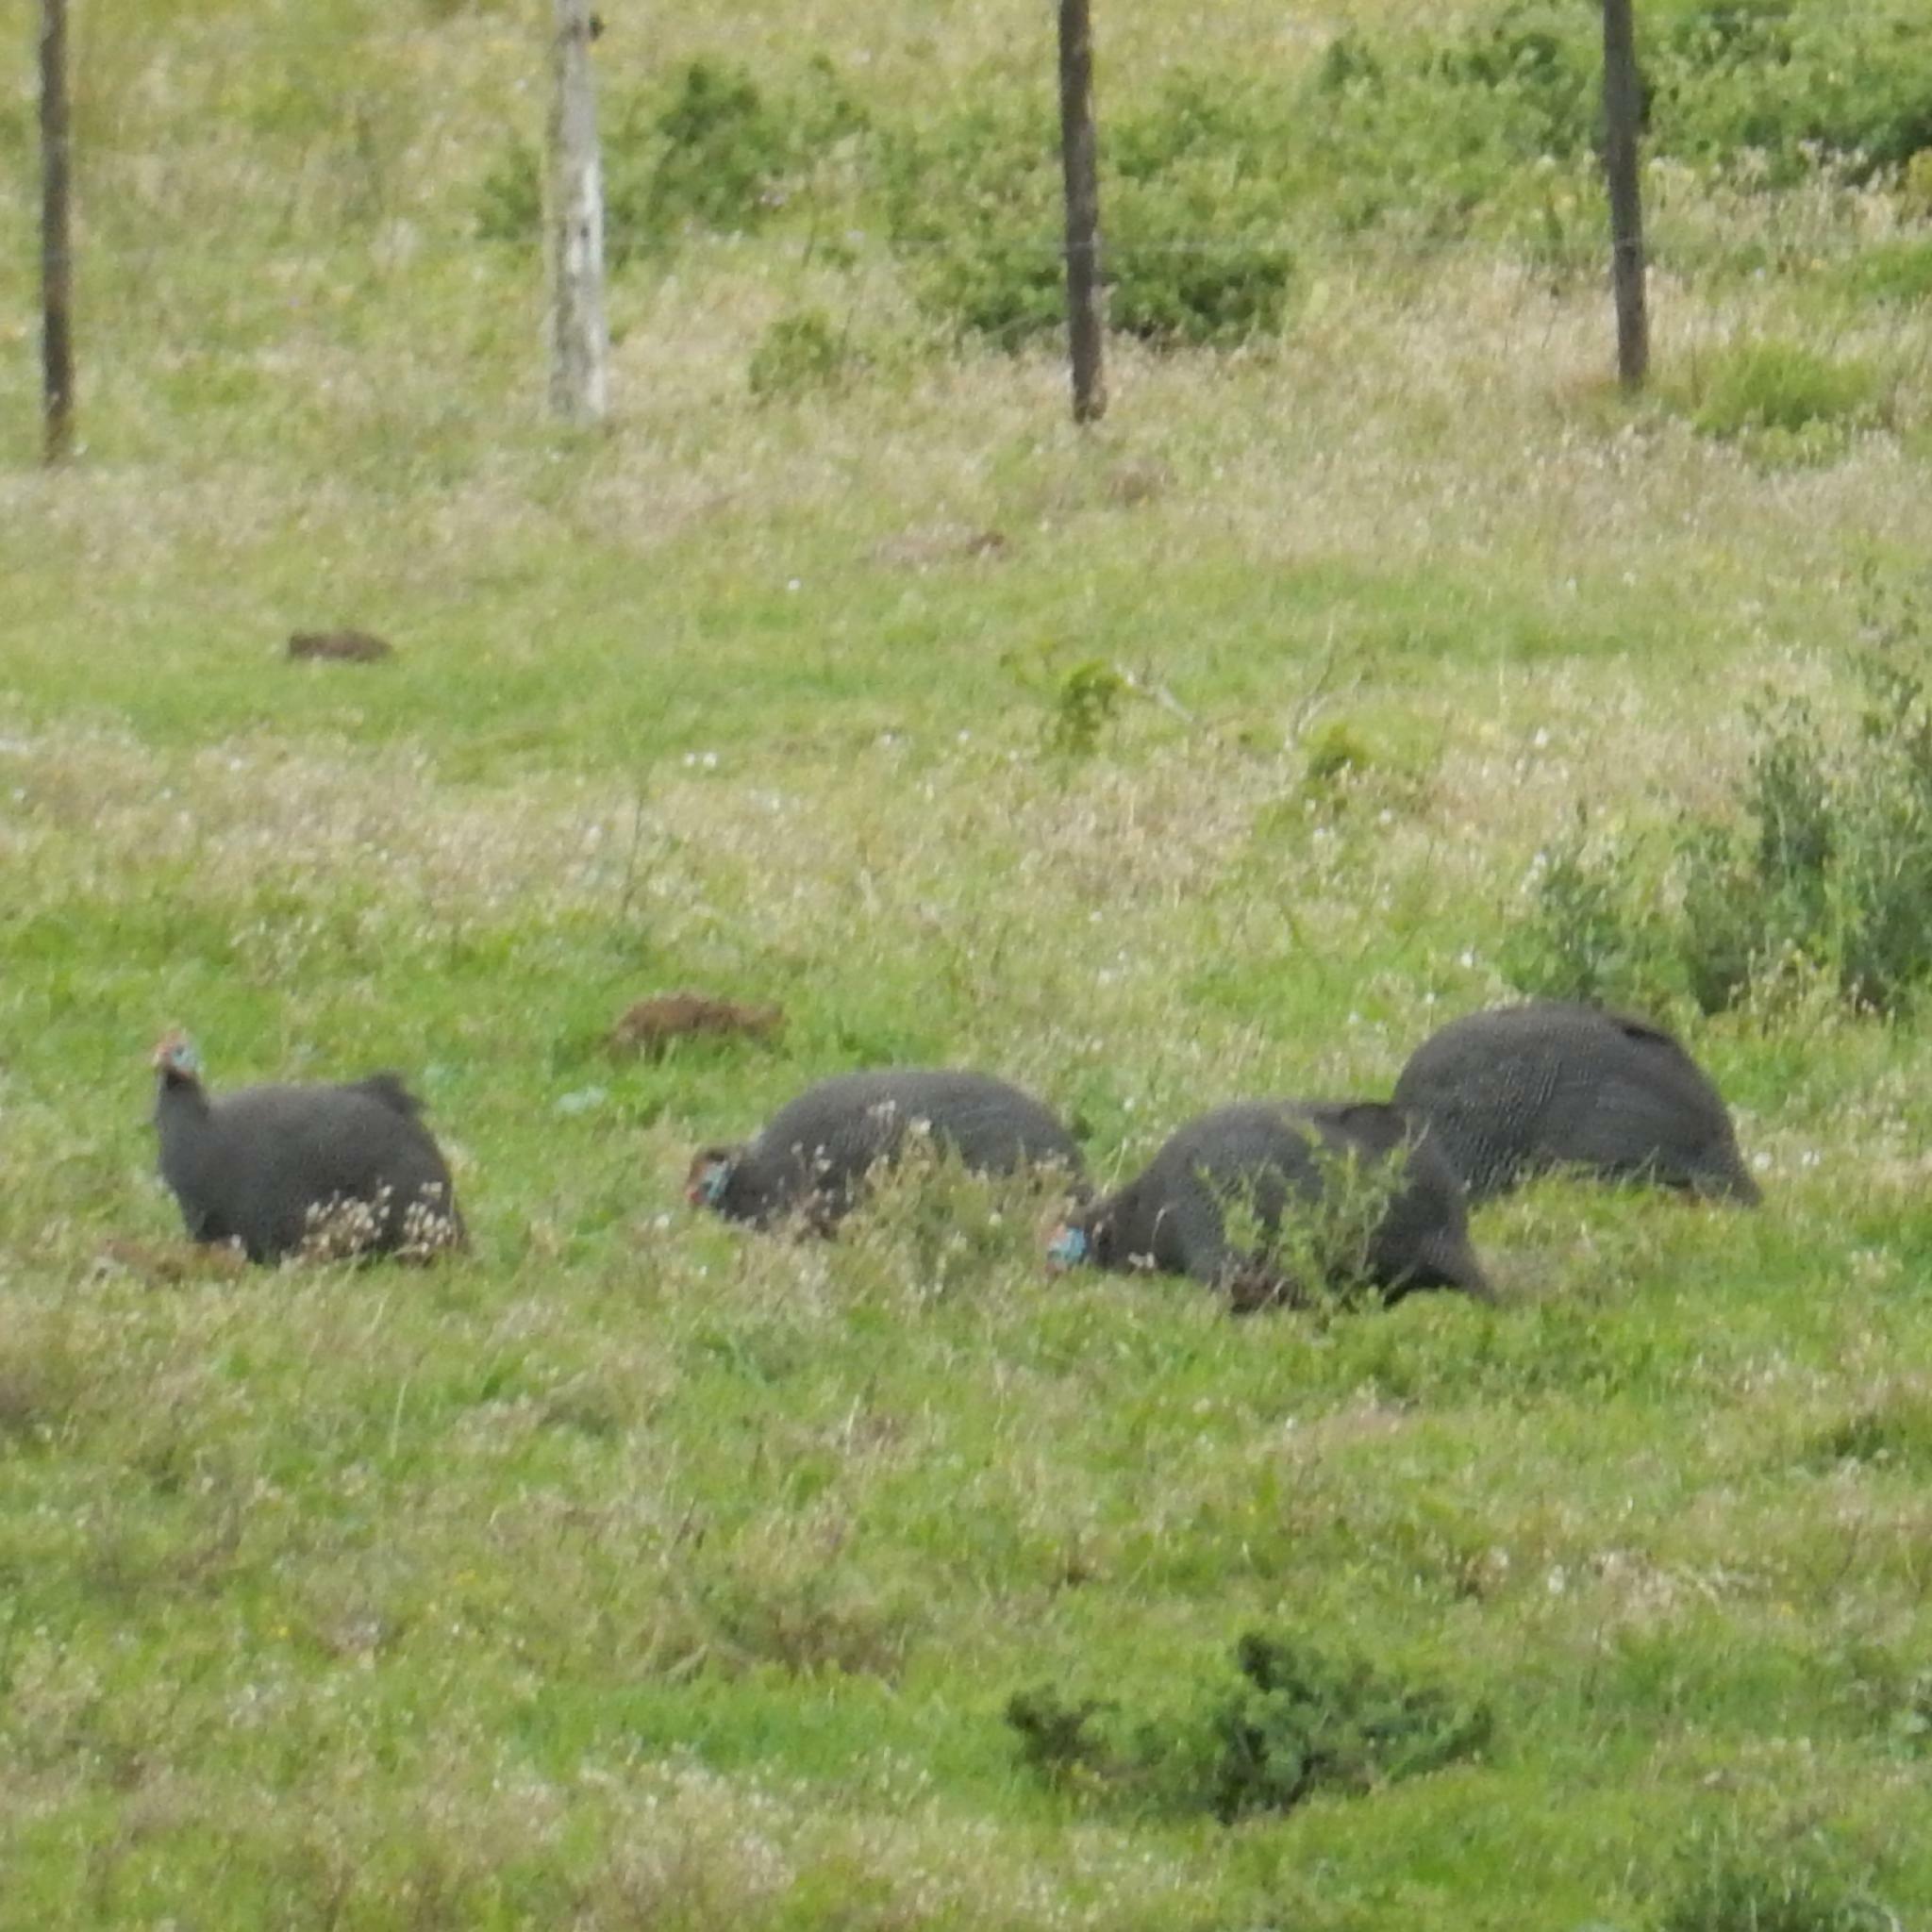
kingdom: Animalia
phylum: Chordata
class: Aves
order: Galliformes
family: Numididae
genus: Numida
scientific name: Numida meleagris
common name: Helmeted guineafowl
